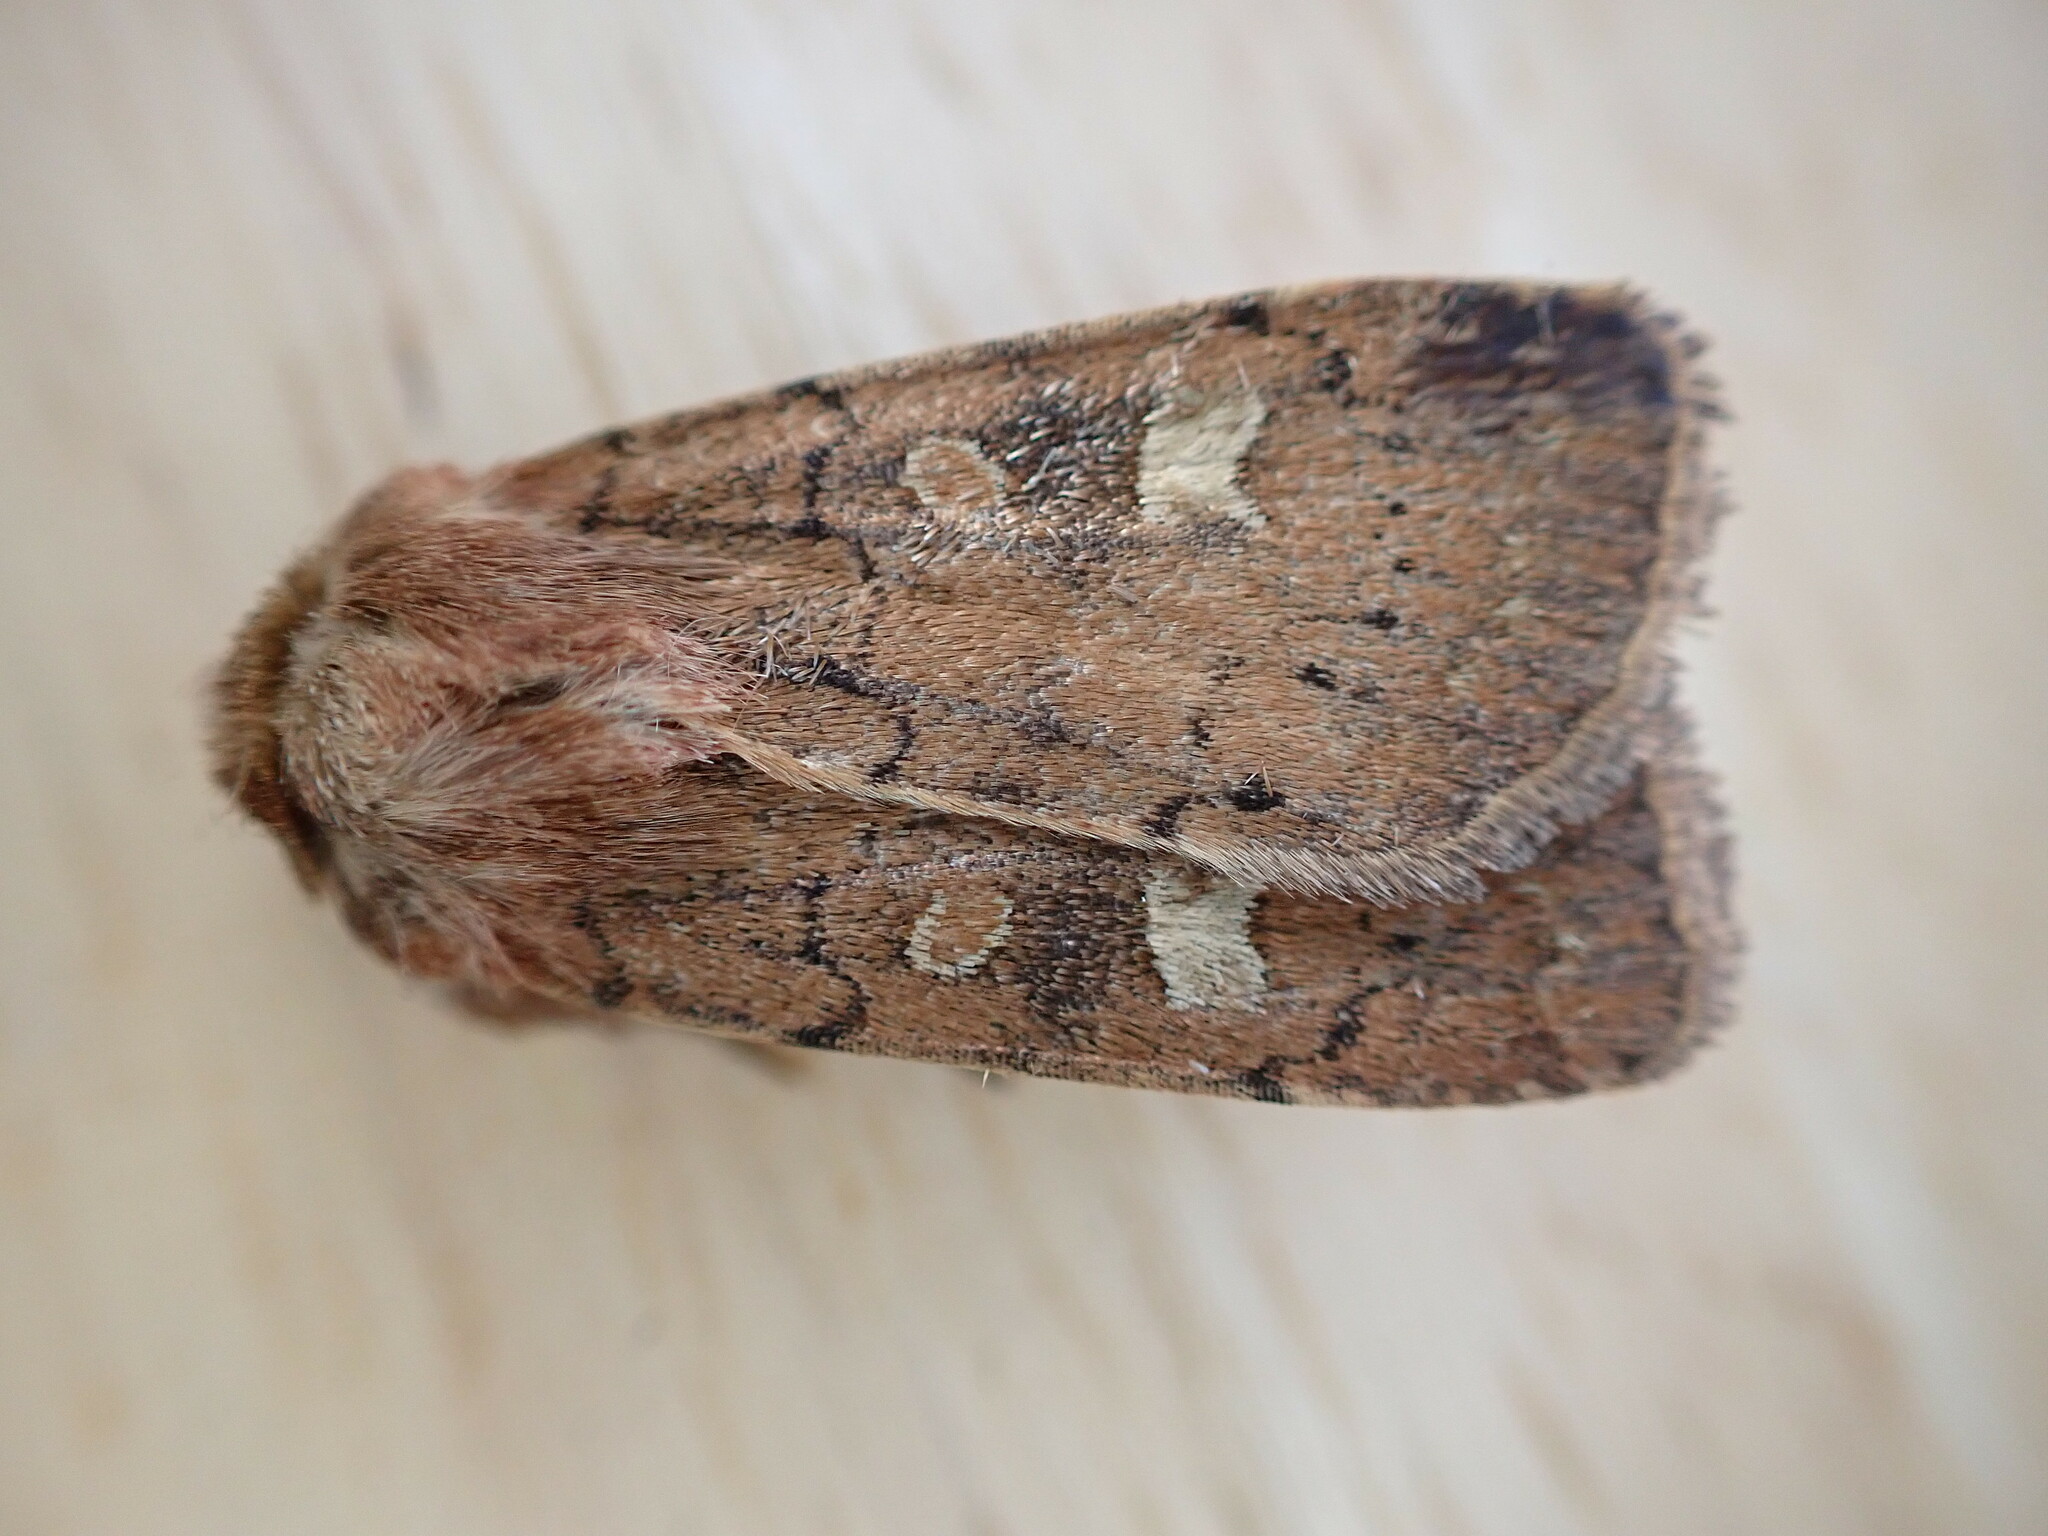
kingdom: Animalia
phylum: Arthropoda
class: Insecta
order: Lepidoptera
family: Noctuidae
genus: Xestia
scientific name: Xestia xanthographa
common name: Square-spot rustic
